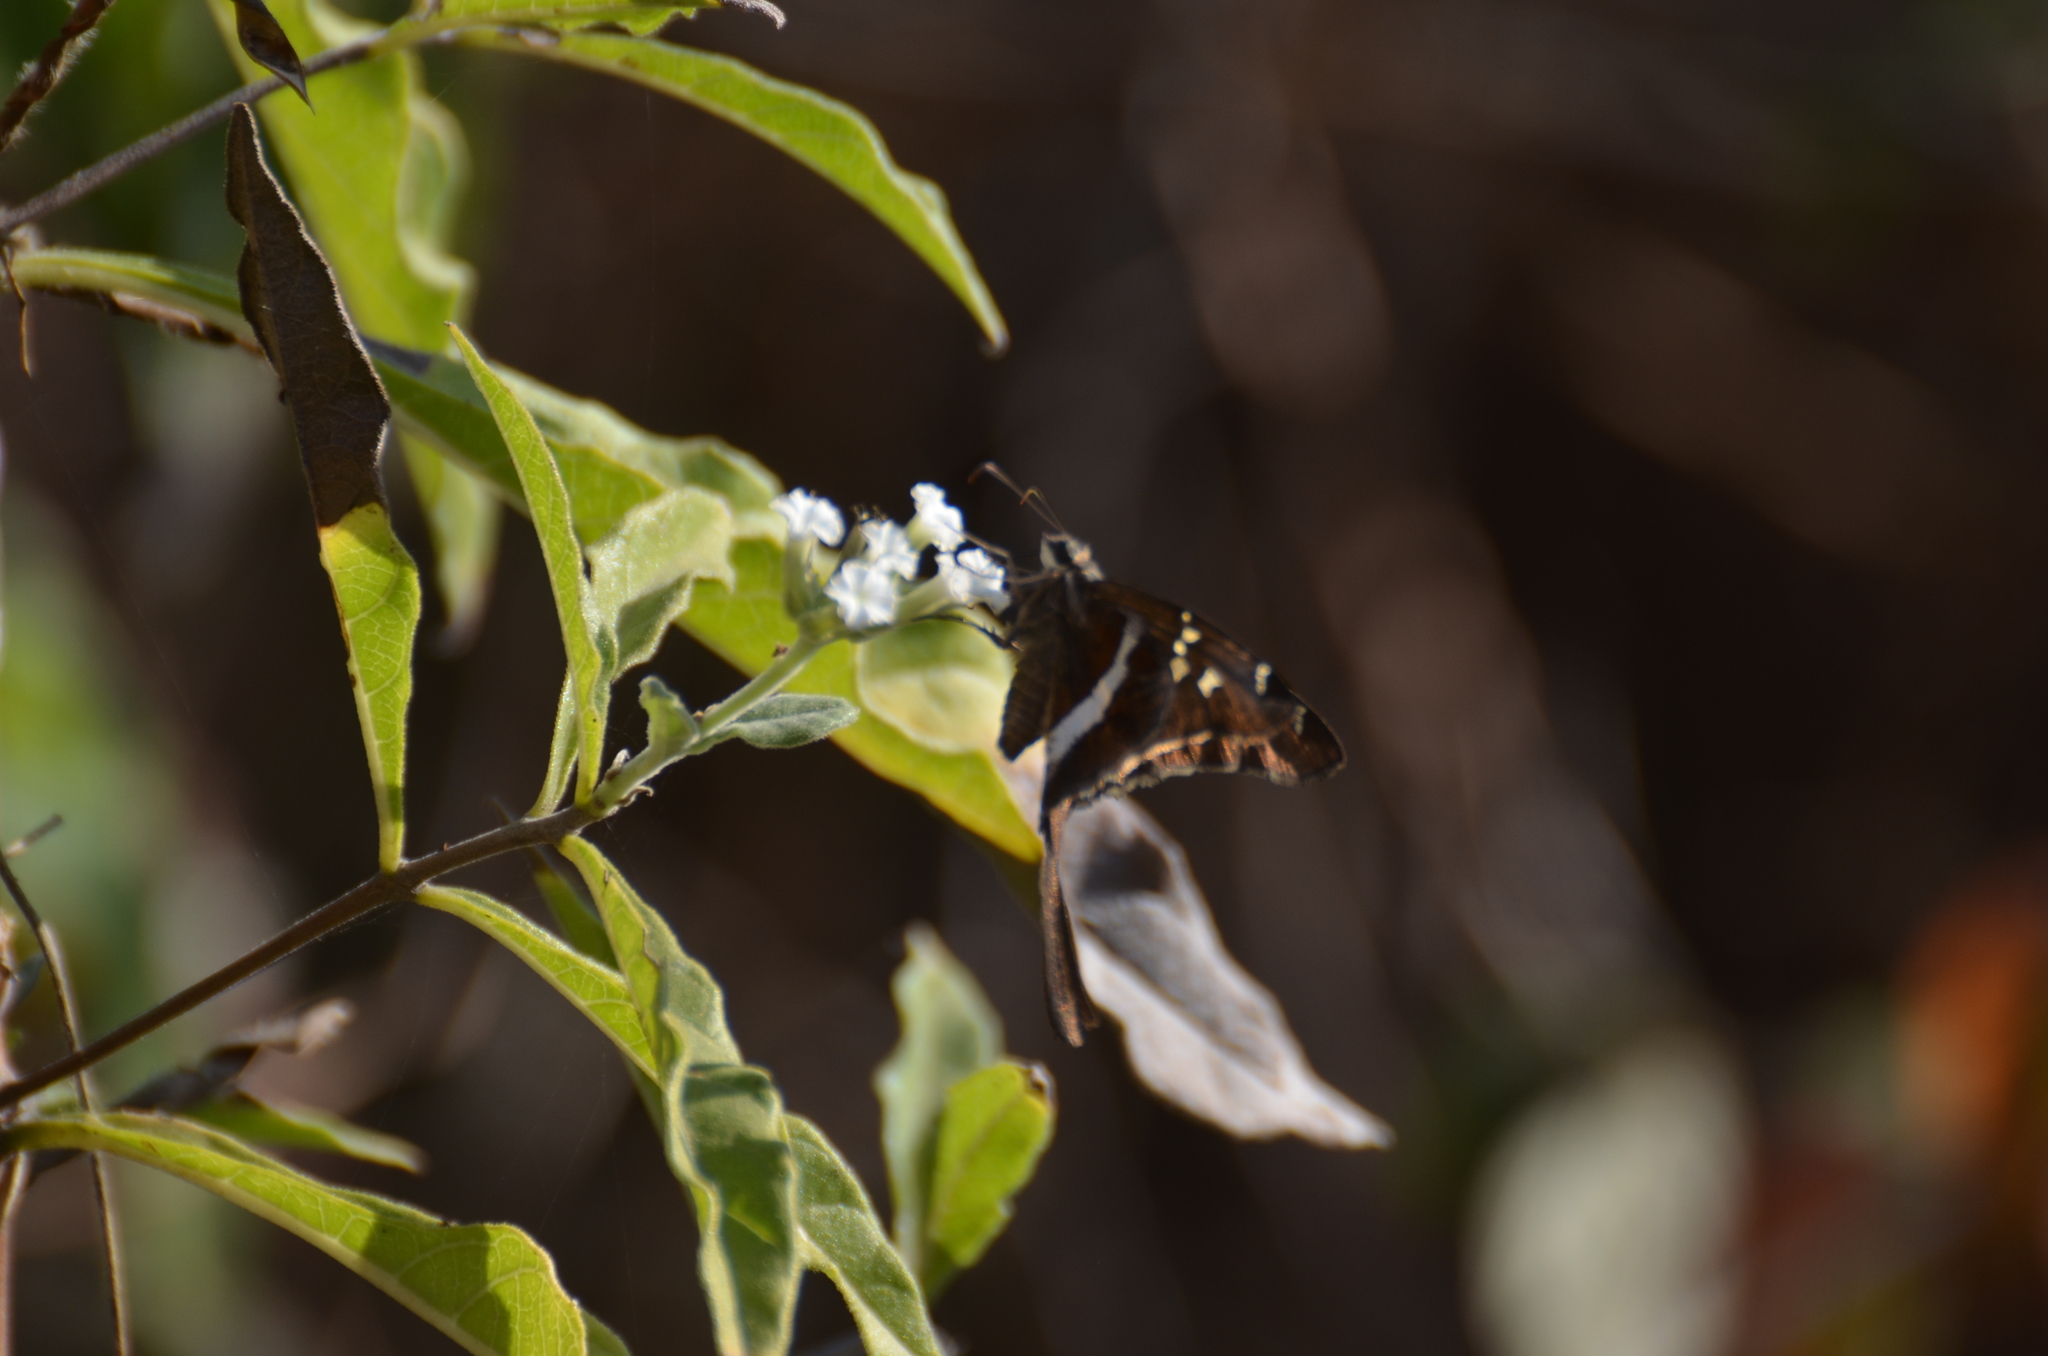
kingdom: Animalia
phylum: Arthropoda
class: Insecta
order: Lepidoptera
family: Hesperiidae
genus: Chioides
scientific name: Chioides catillus
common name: Silverbanded skipper
